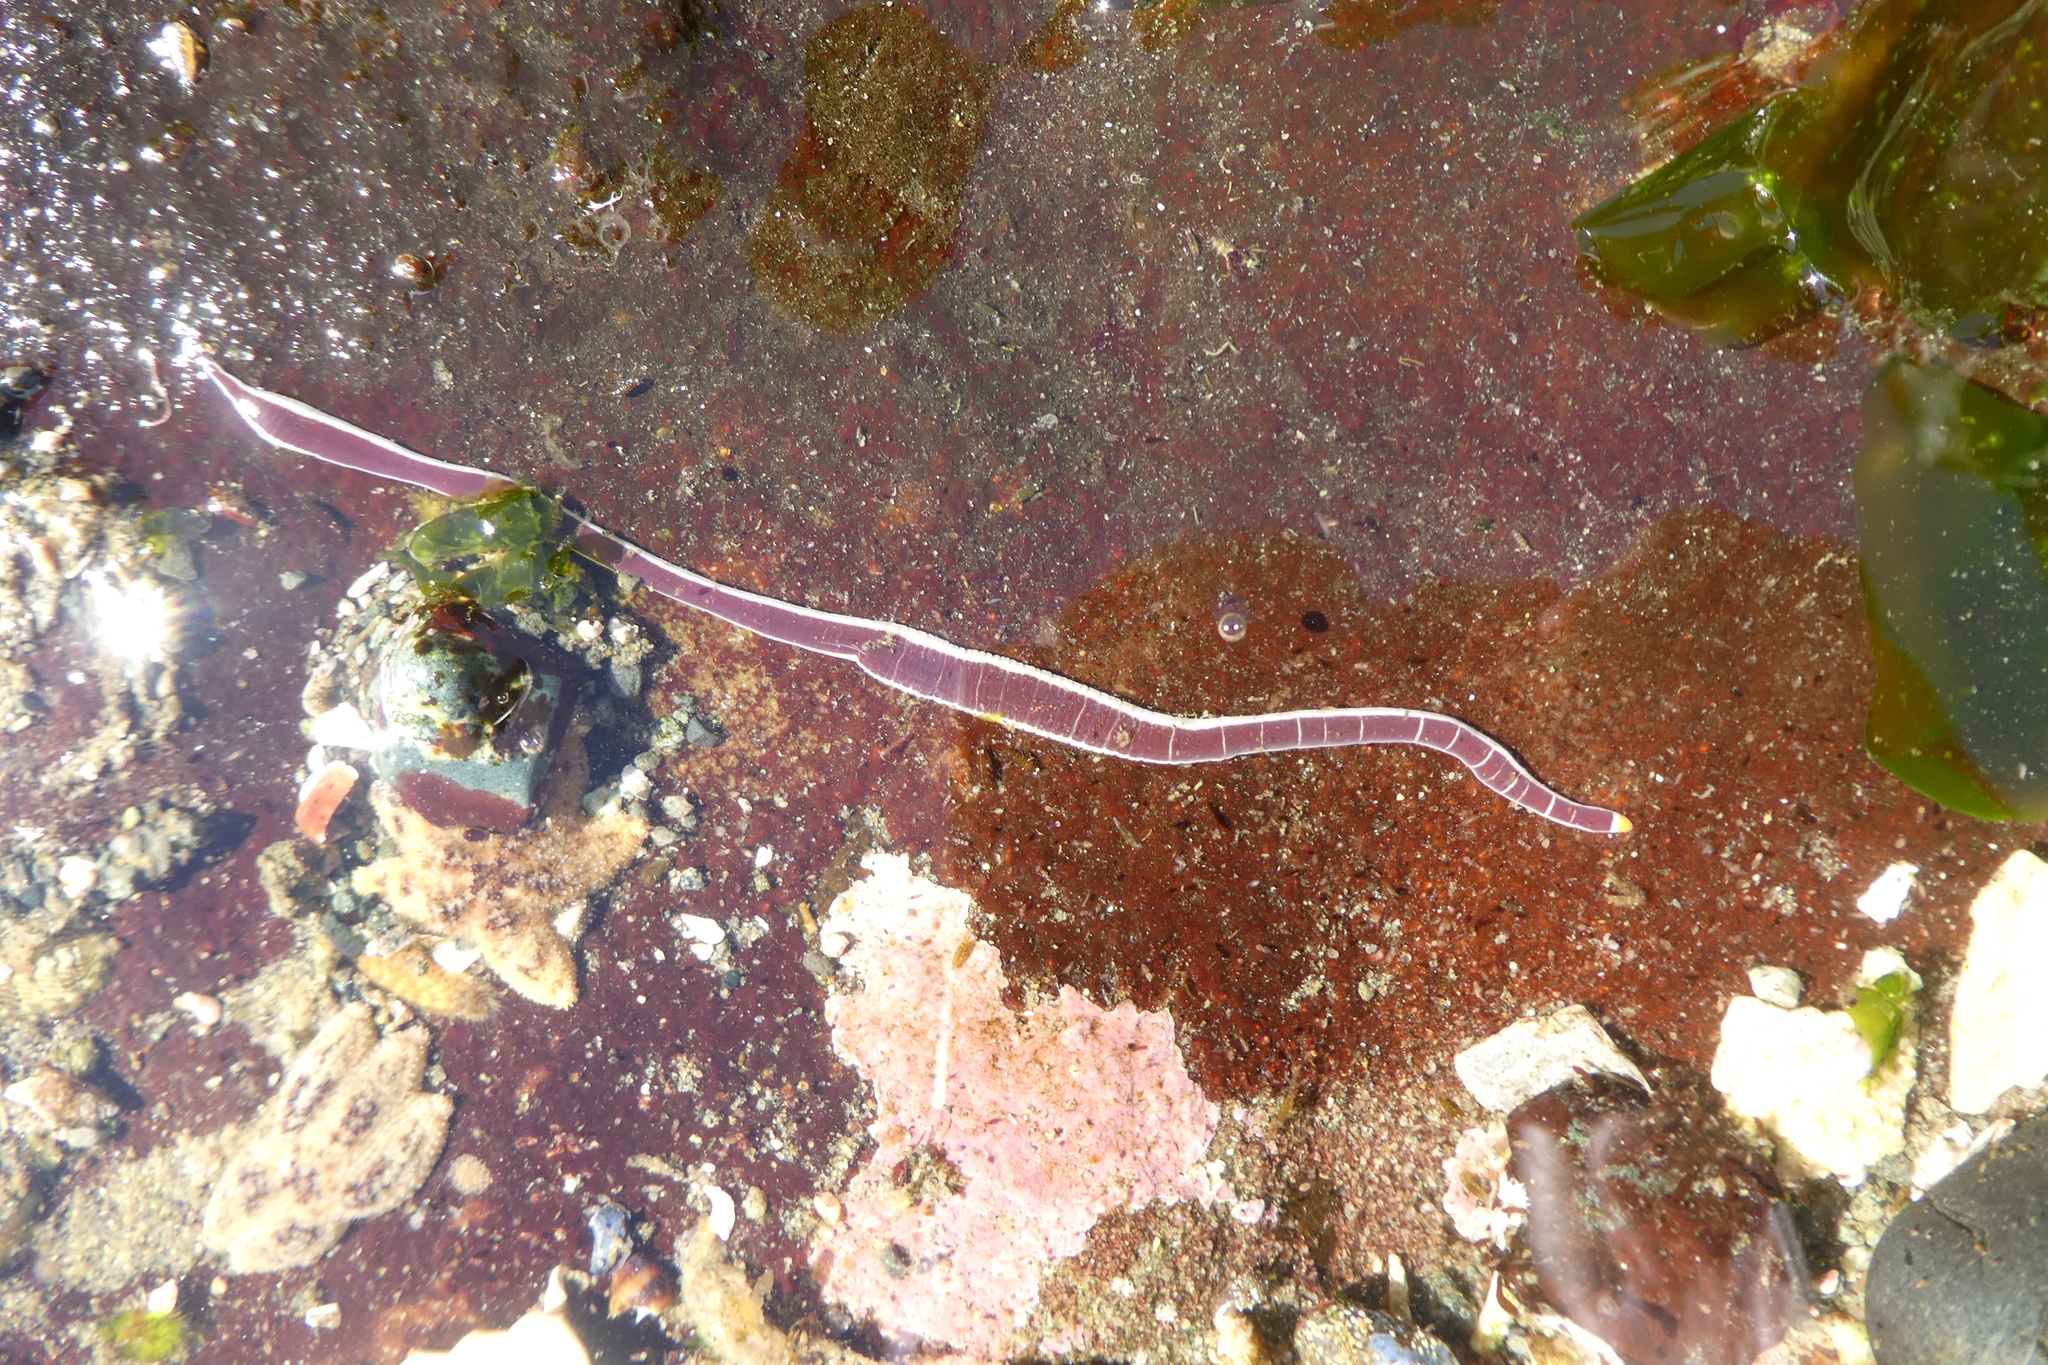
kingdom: Animalia
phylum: Nemertea
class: Pilidiophora
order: Heteronemertea
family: Lineidae
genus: Micrura
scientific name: Micrura verrilli
